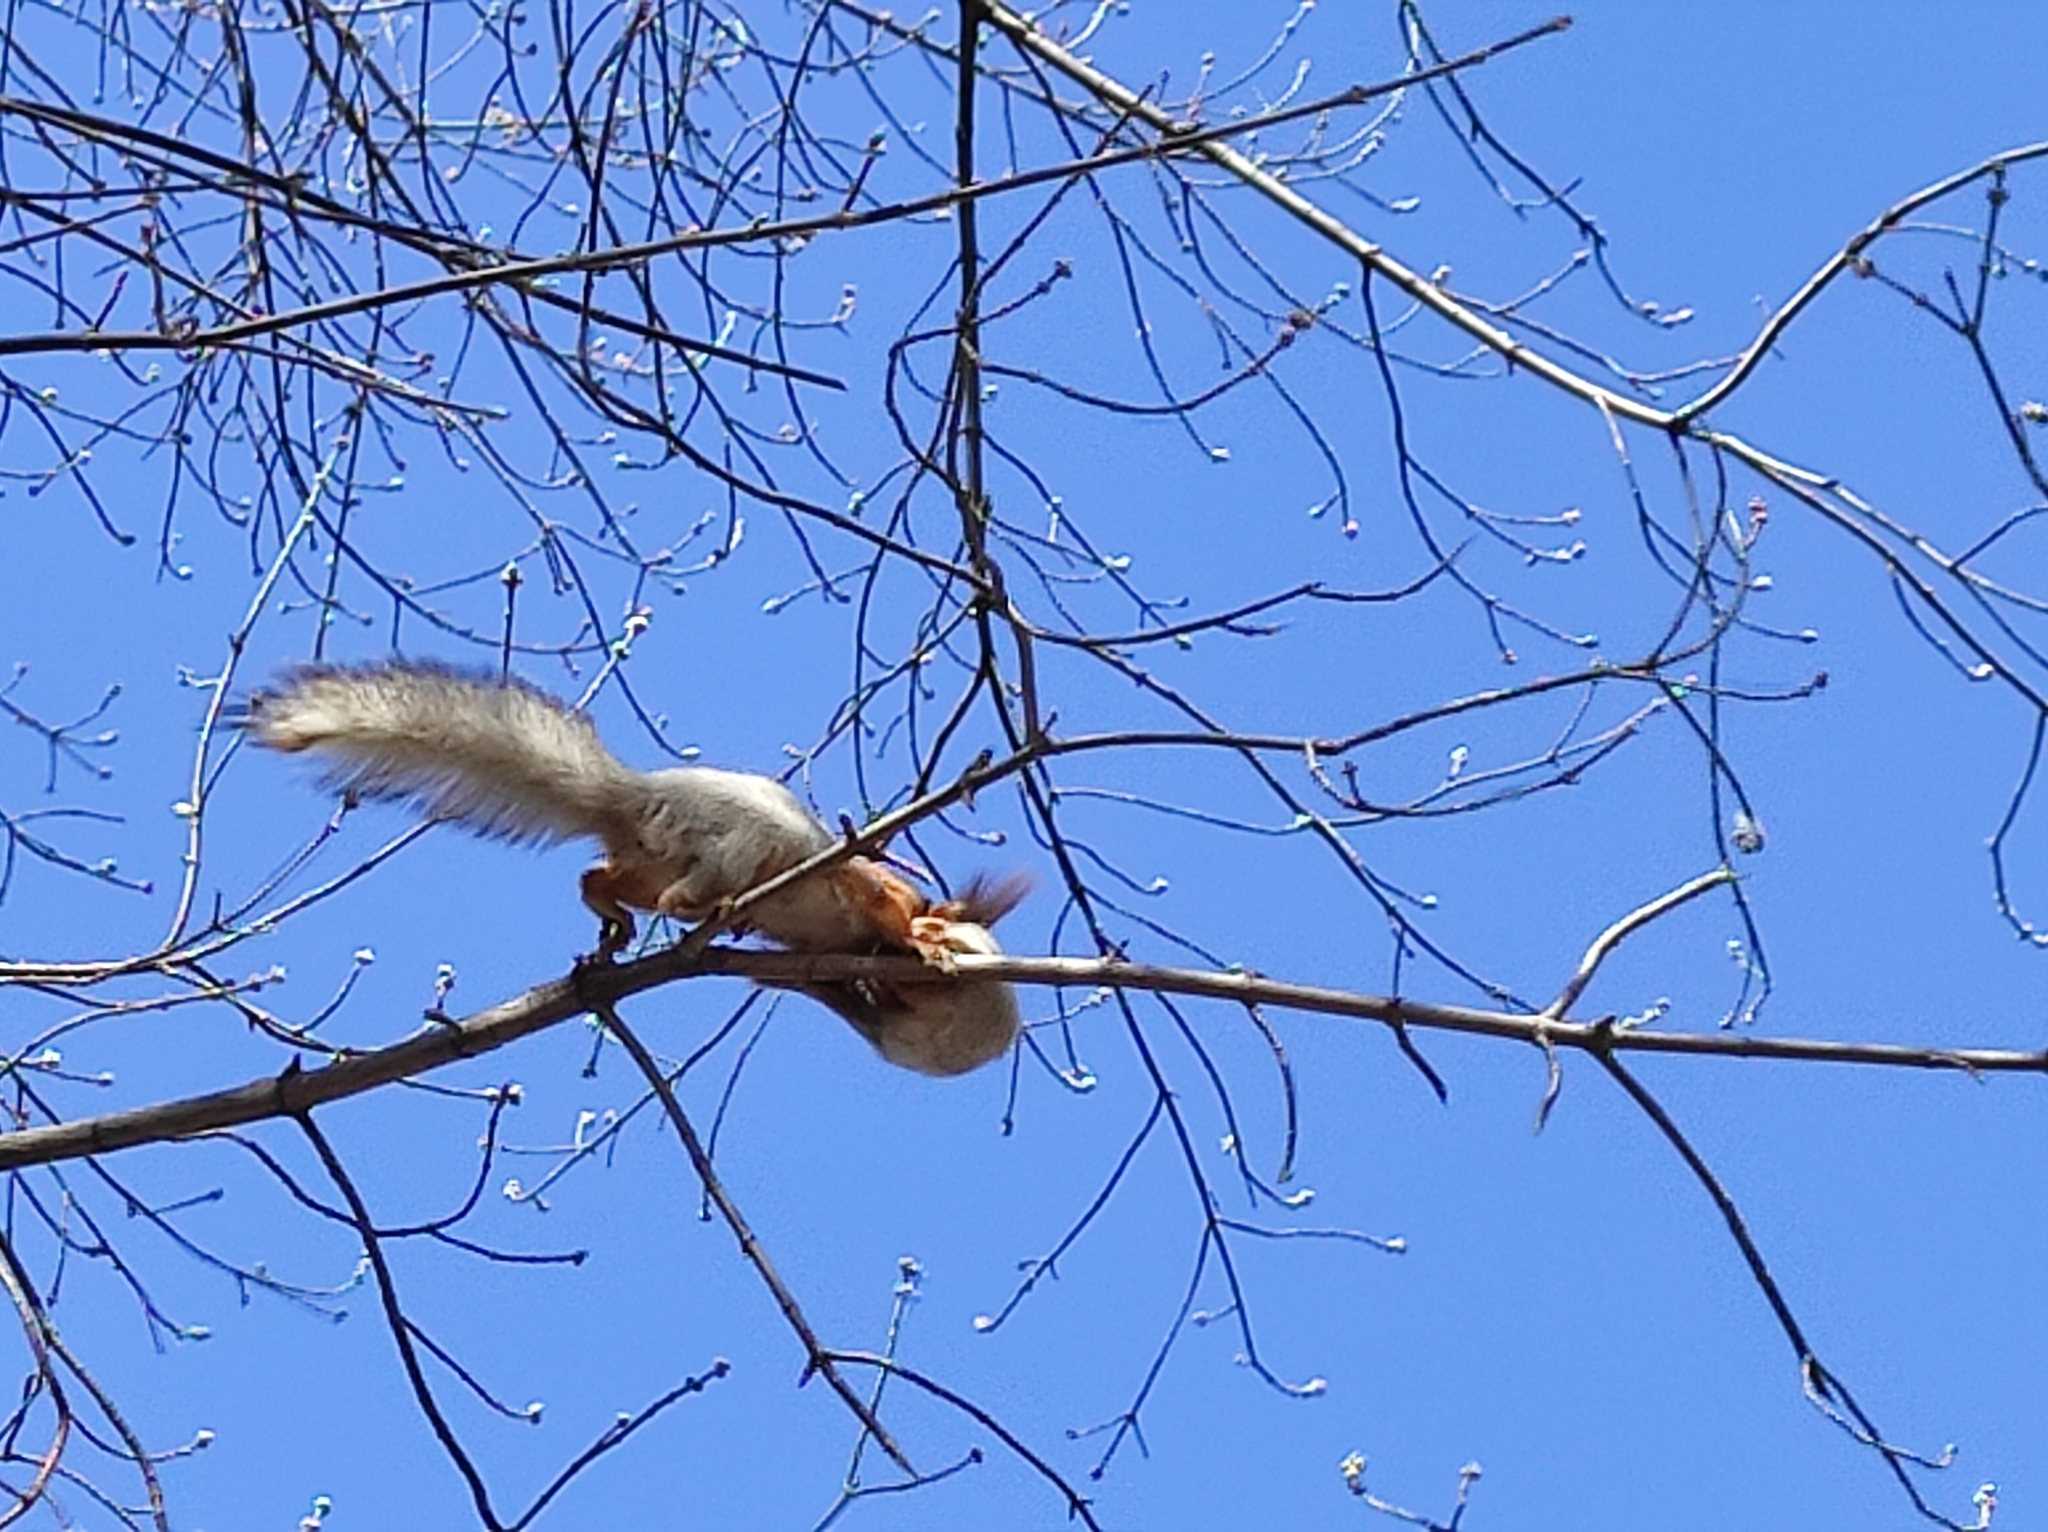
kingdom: Animalia
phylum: Chordata
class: Mammalia
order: Rodentia
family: Sciuridae
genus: Sciurus
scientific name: Sciurus vulgaris
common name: Eurasian red squirrel
